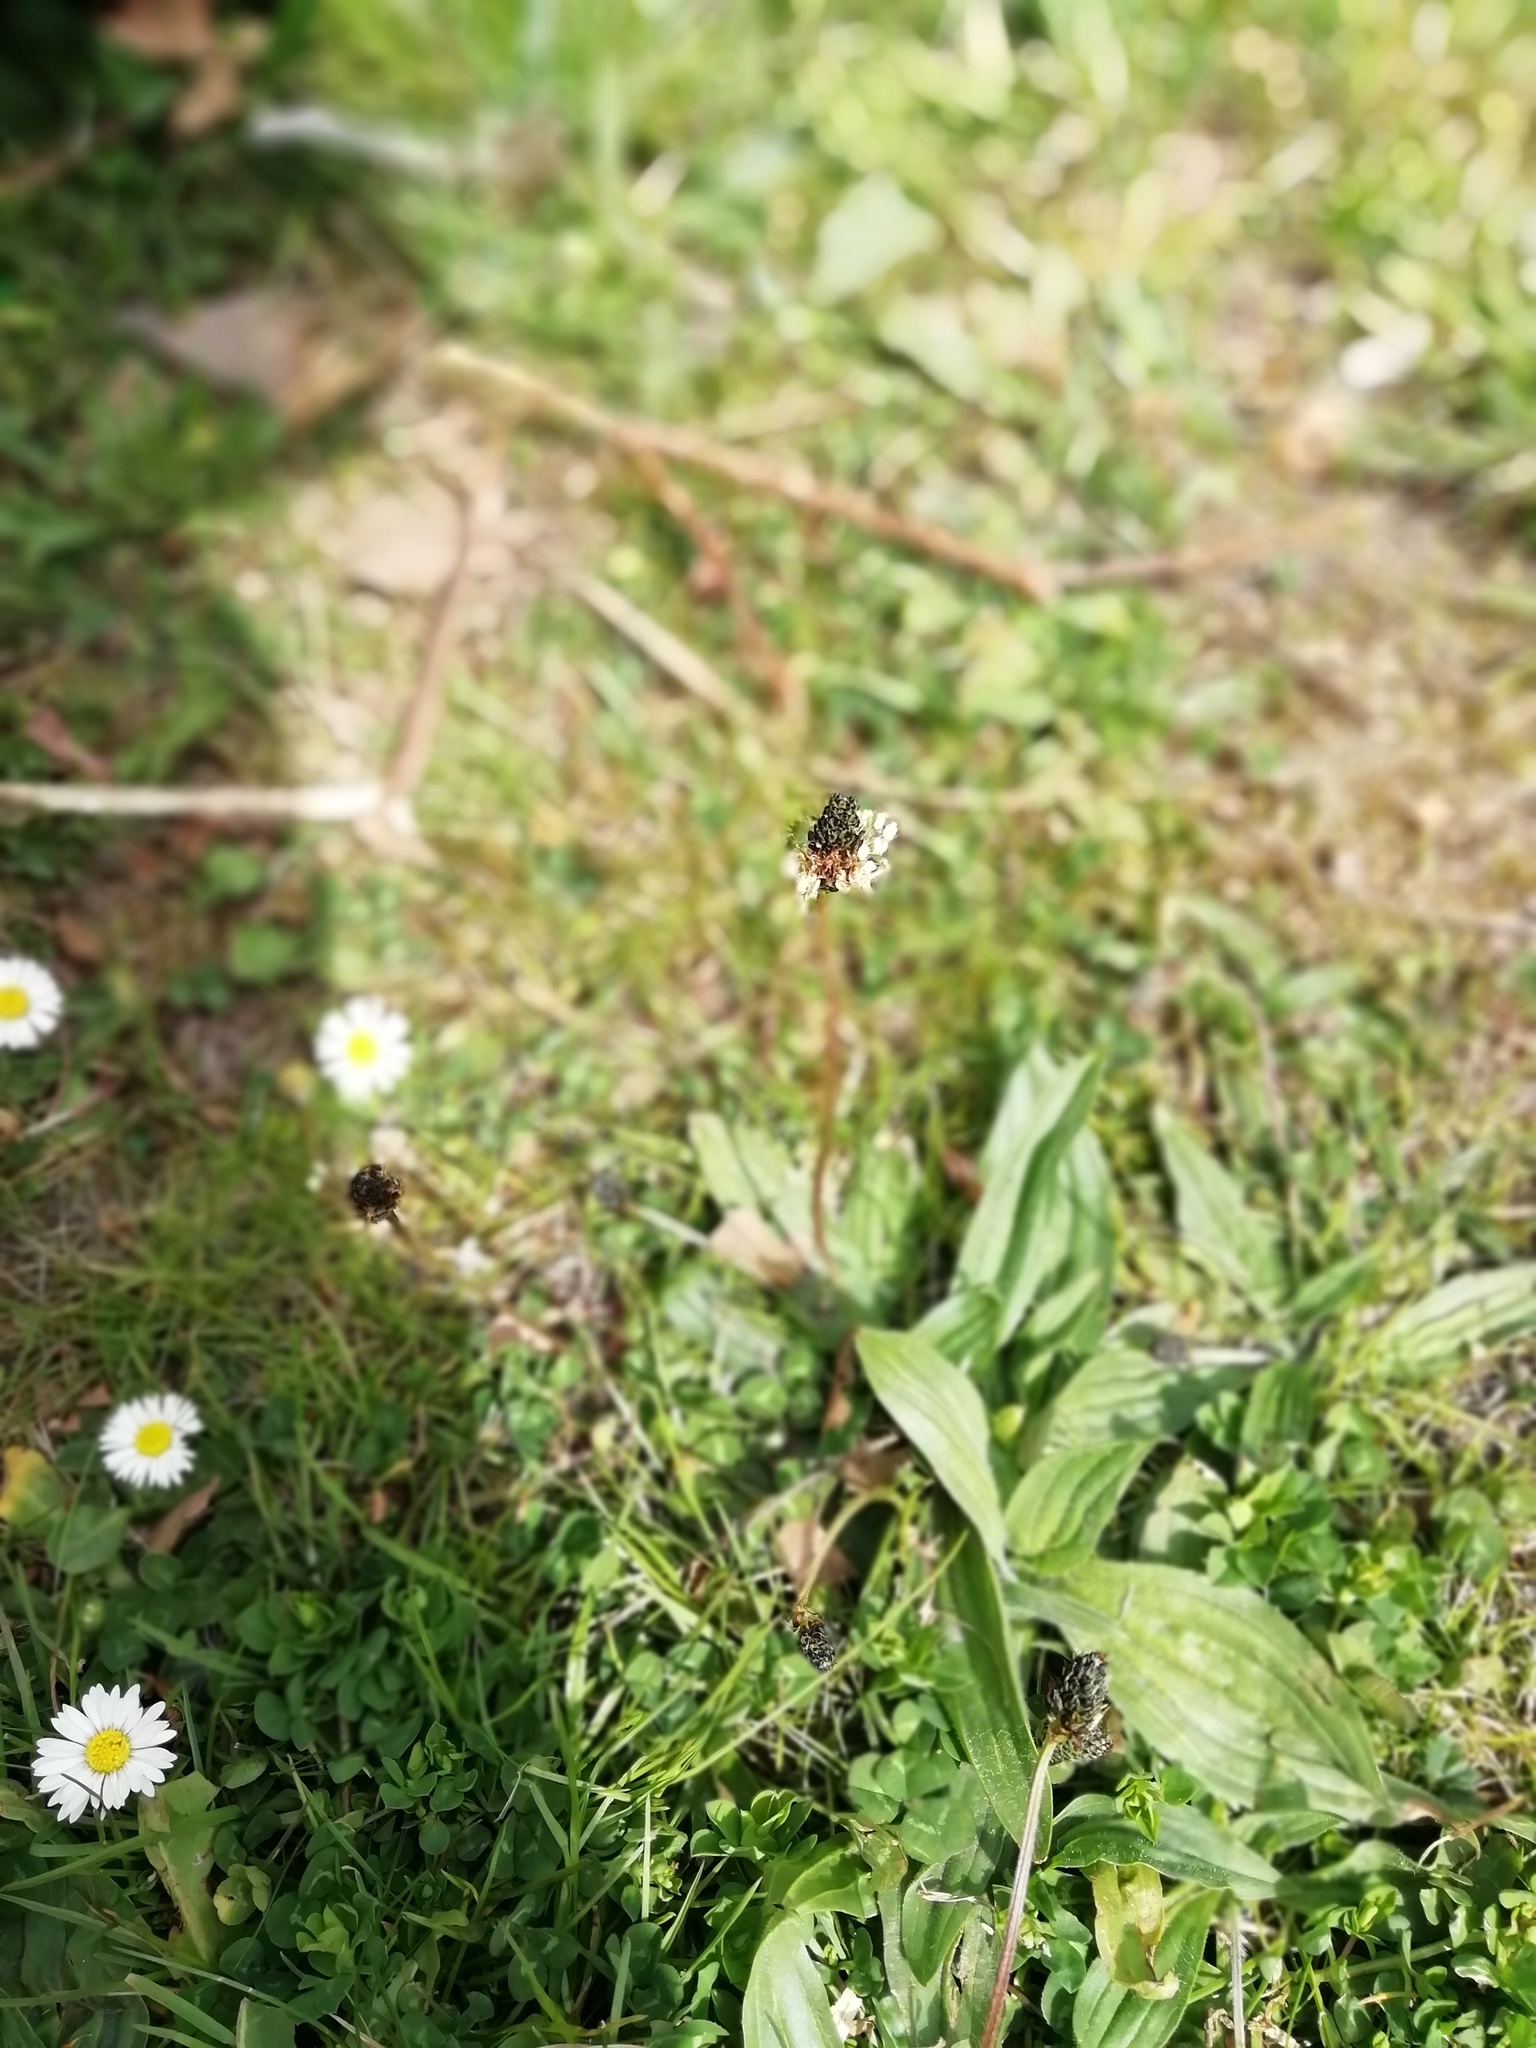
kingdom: Plantae
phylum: Tracheophyta
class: Magnoliopsida
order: Lamiales
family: Plantaginaceae
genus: Plantago
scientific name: Plantago lanceolata
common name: Ribwort plantain
